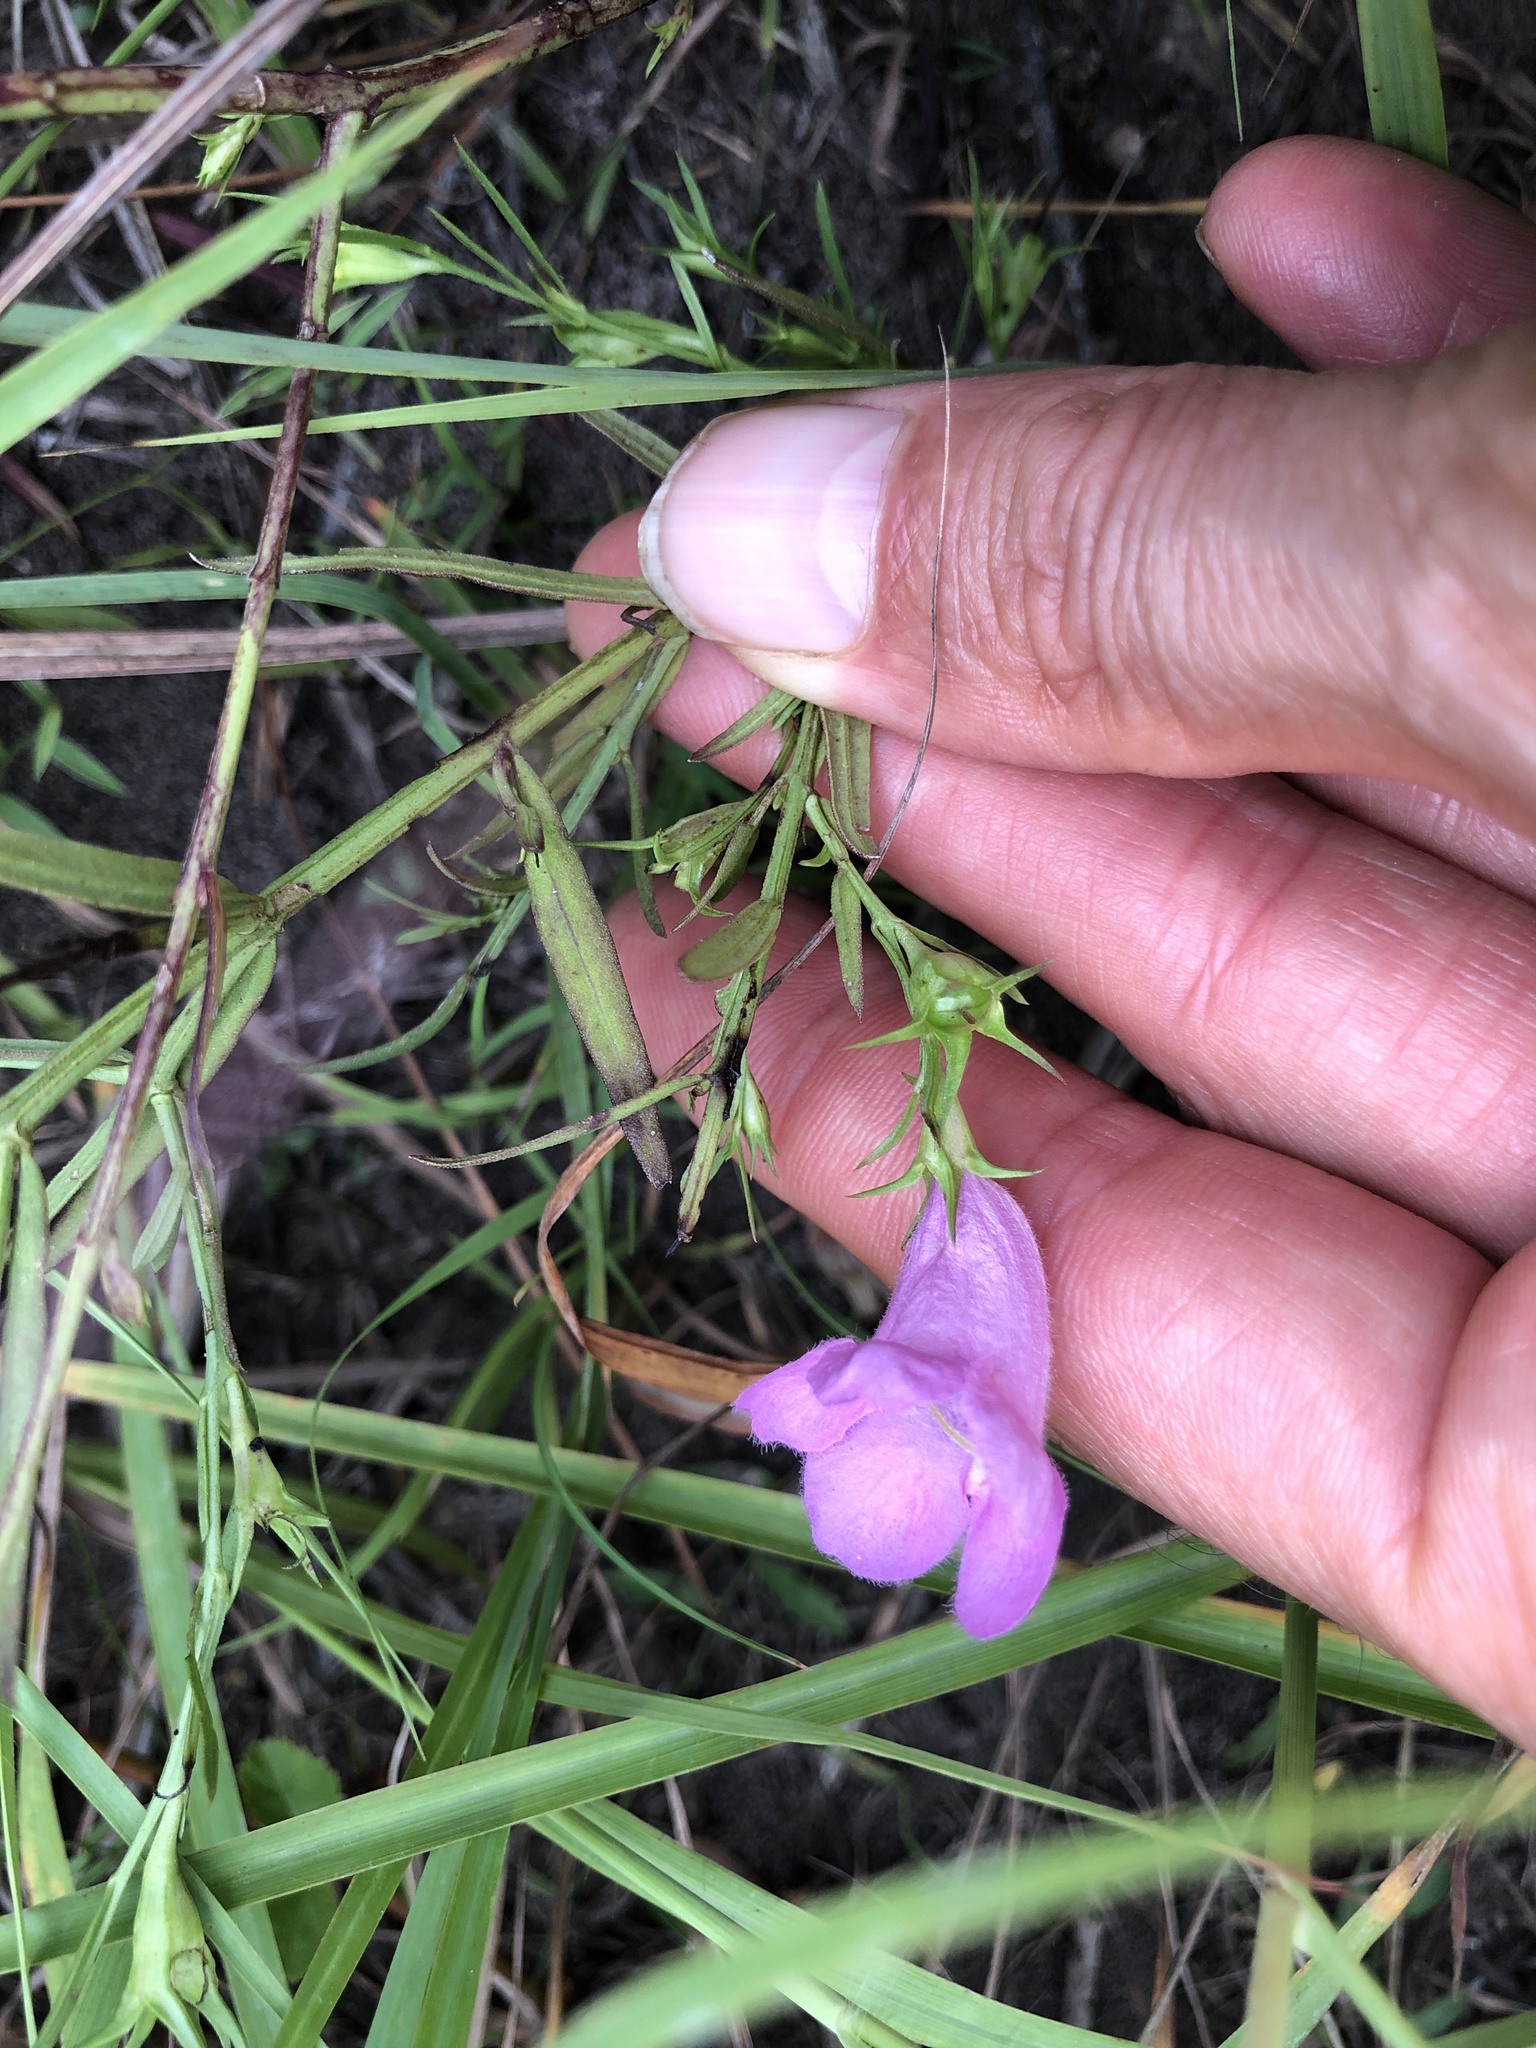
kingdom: Plantae
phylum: Tracheophyta
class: Magnoliopsida
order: Lamiales
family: Orobanchaceae
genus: Agalinis
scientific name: Agalinis heterophylla
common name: Prairie agalinis
